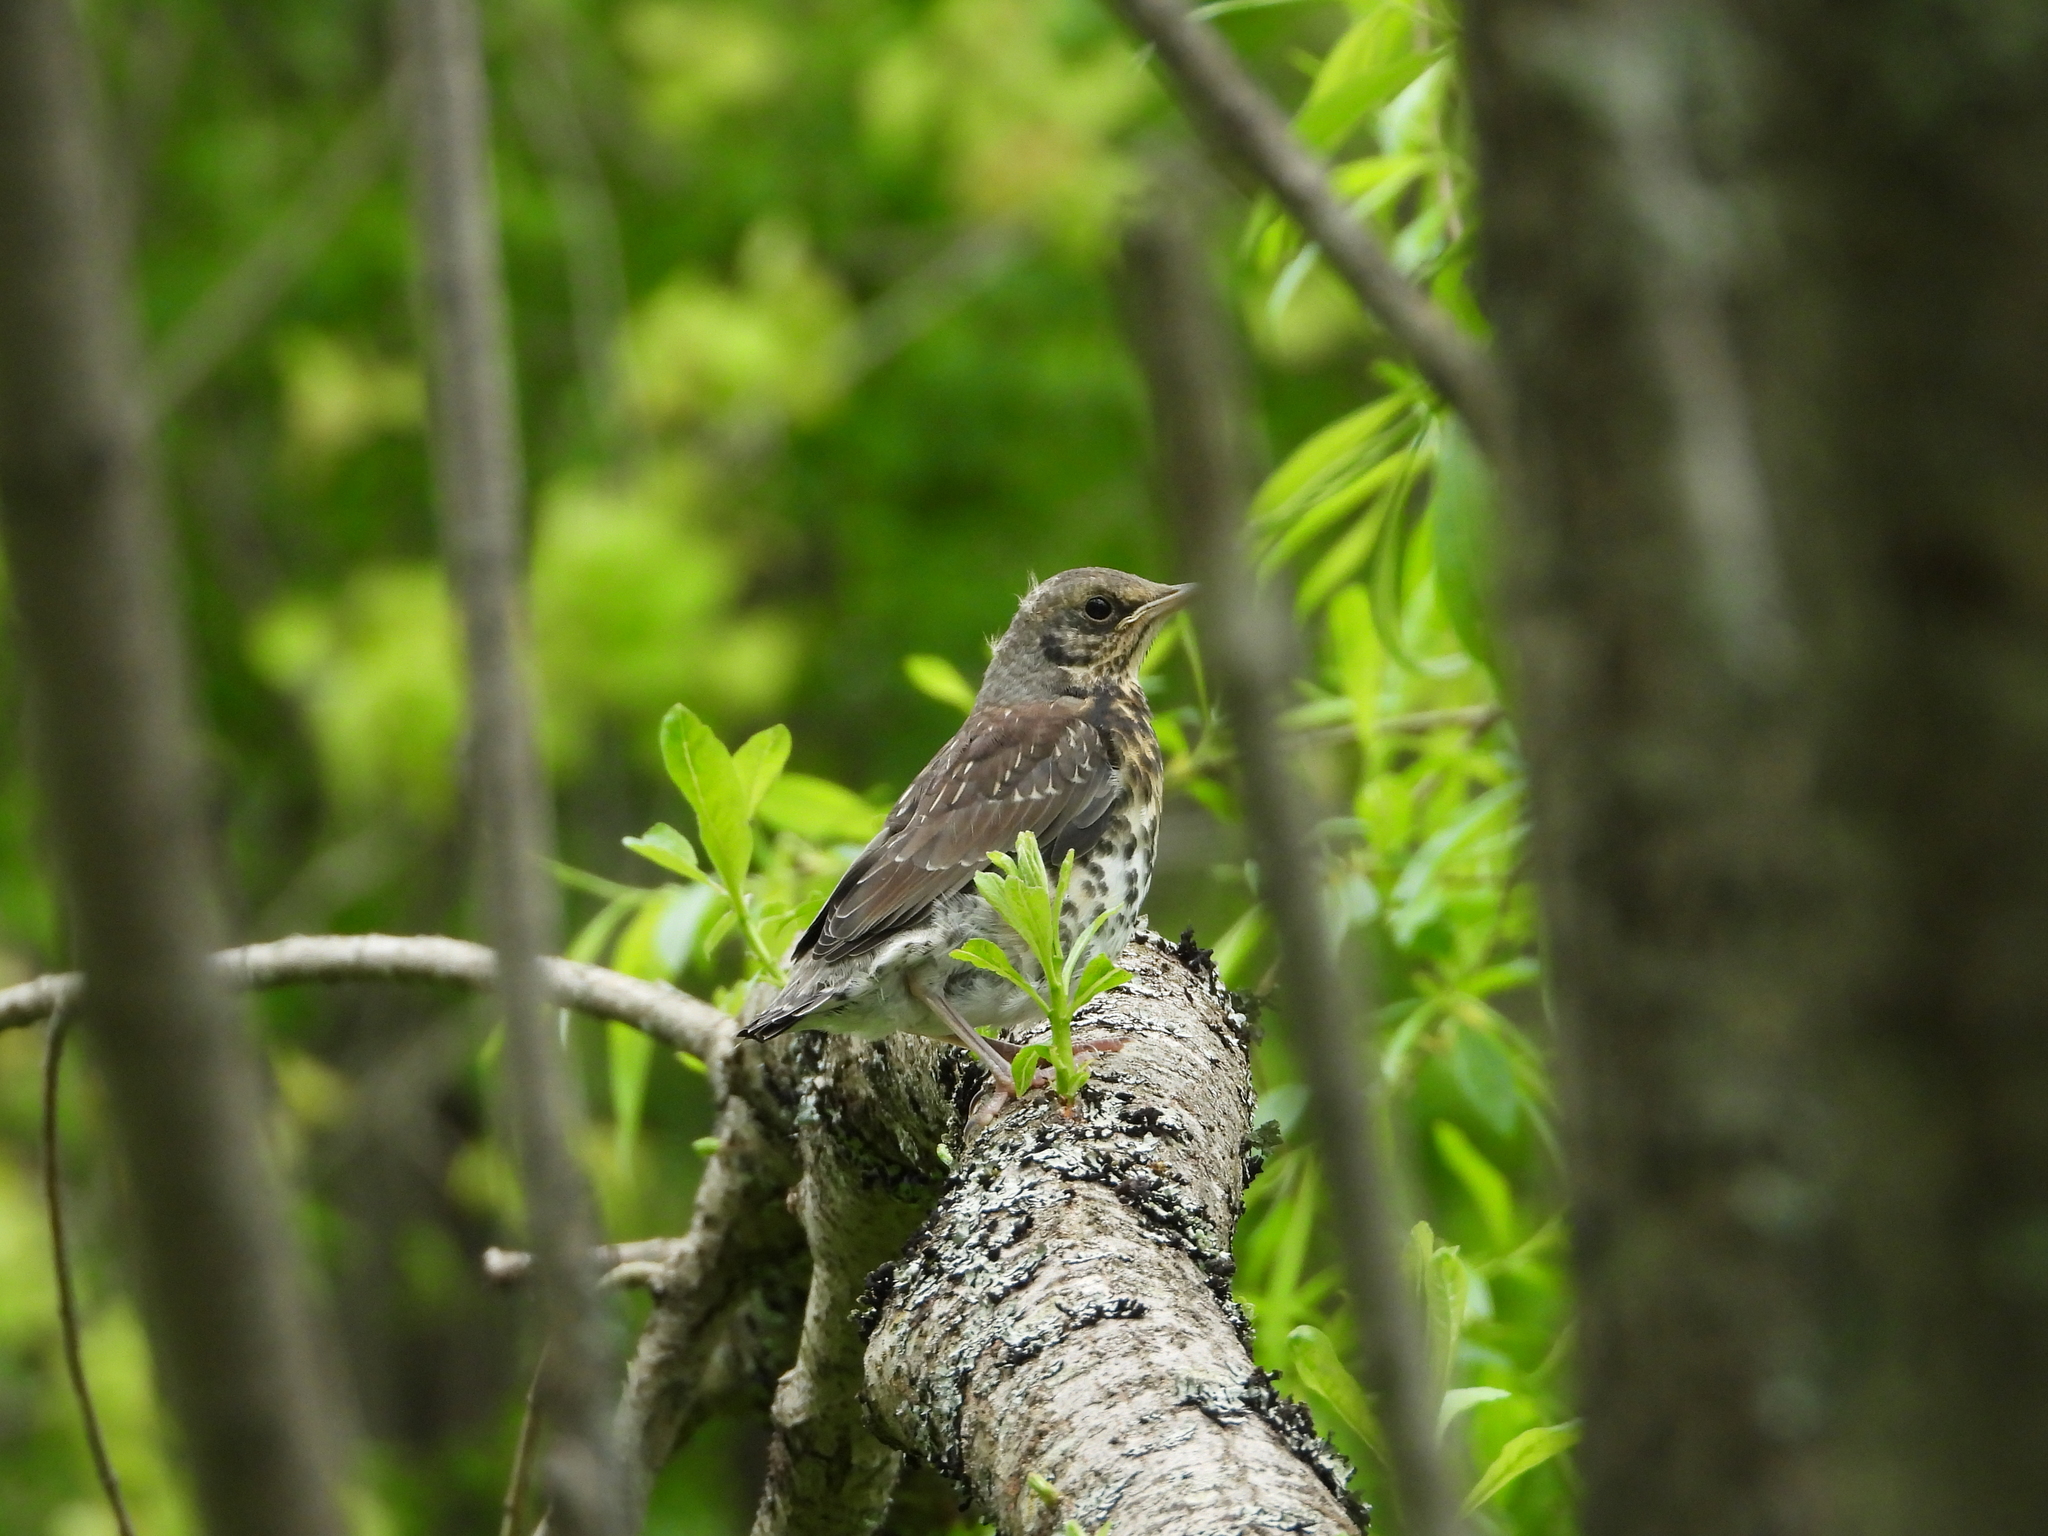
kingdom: Animalia
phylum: Chordata
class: Aves
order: Passeriformes
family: Turdidae
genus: Turdus
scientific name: Turdus pilaris
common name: Fieldfare
